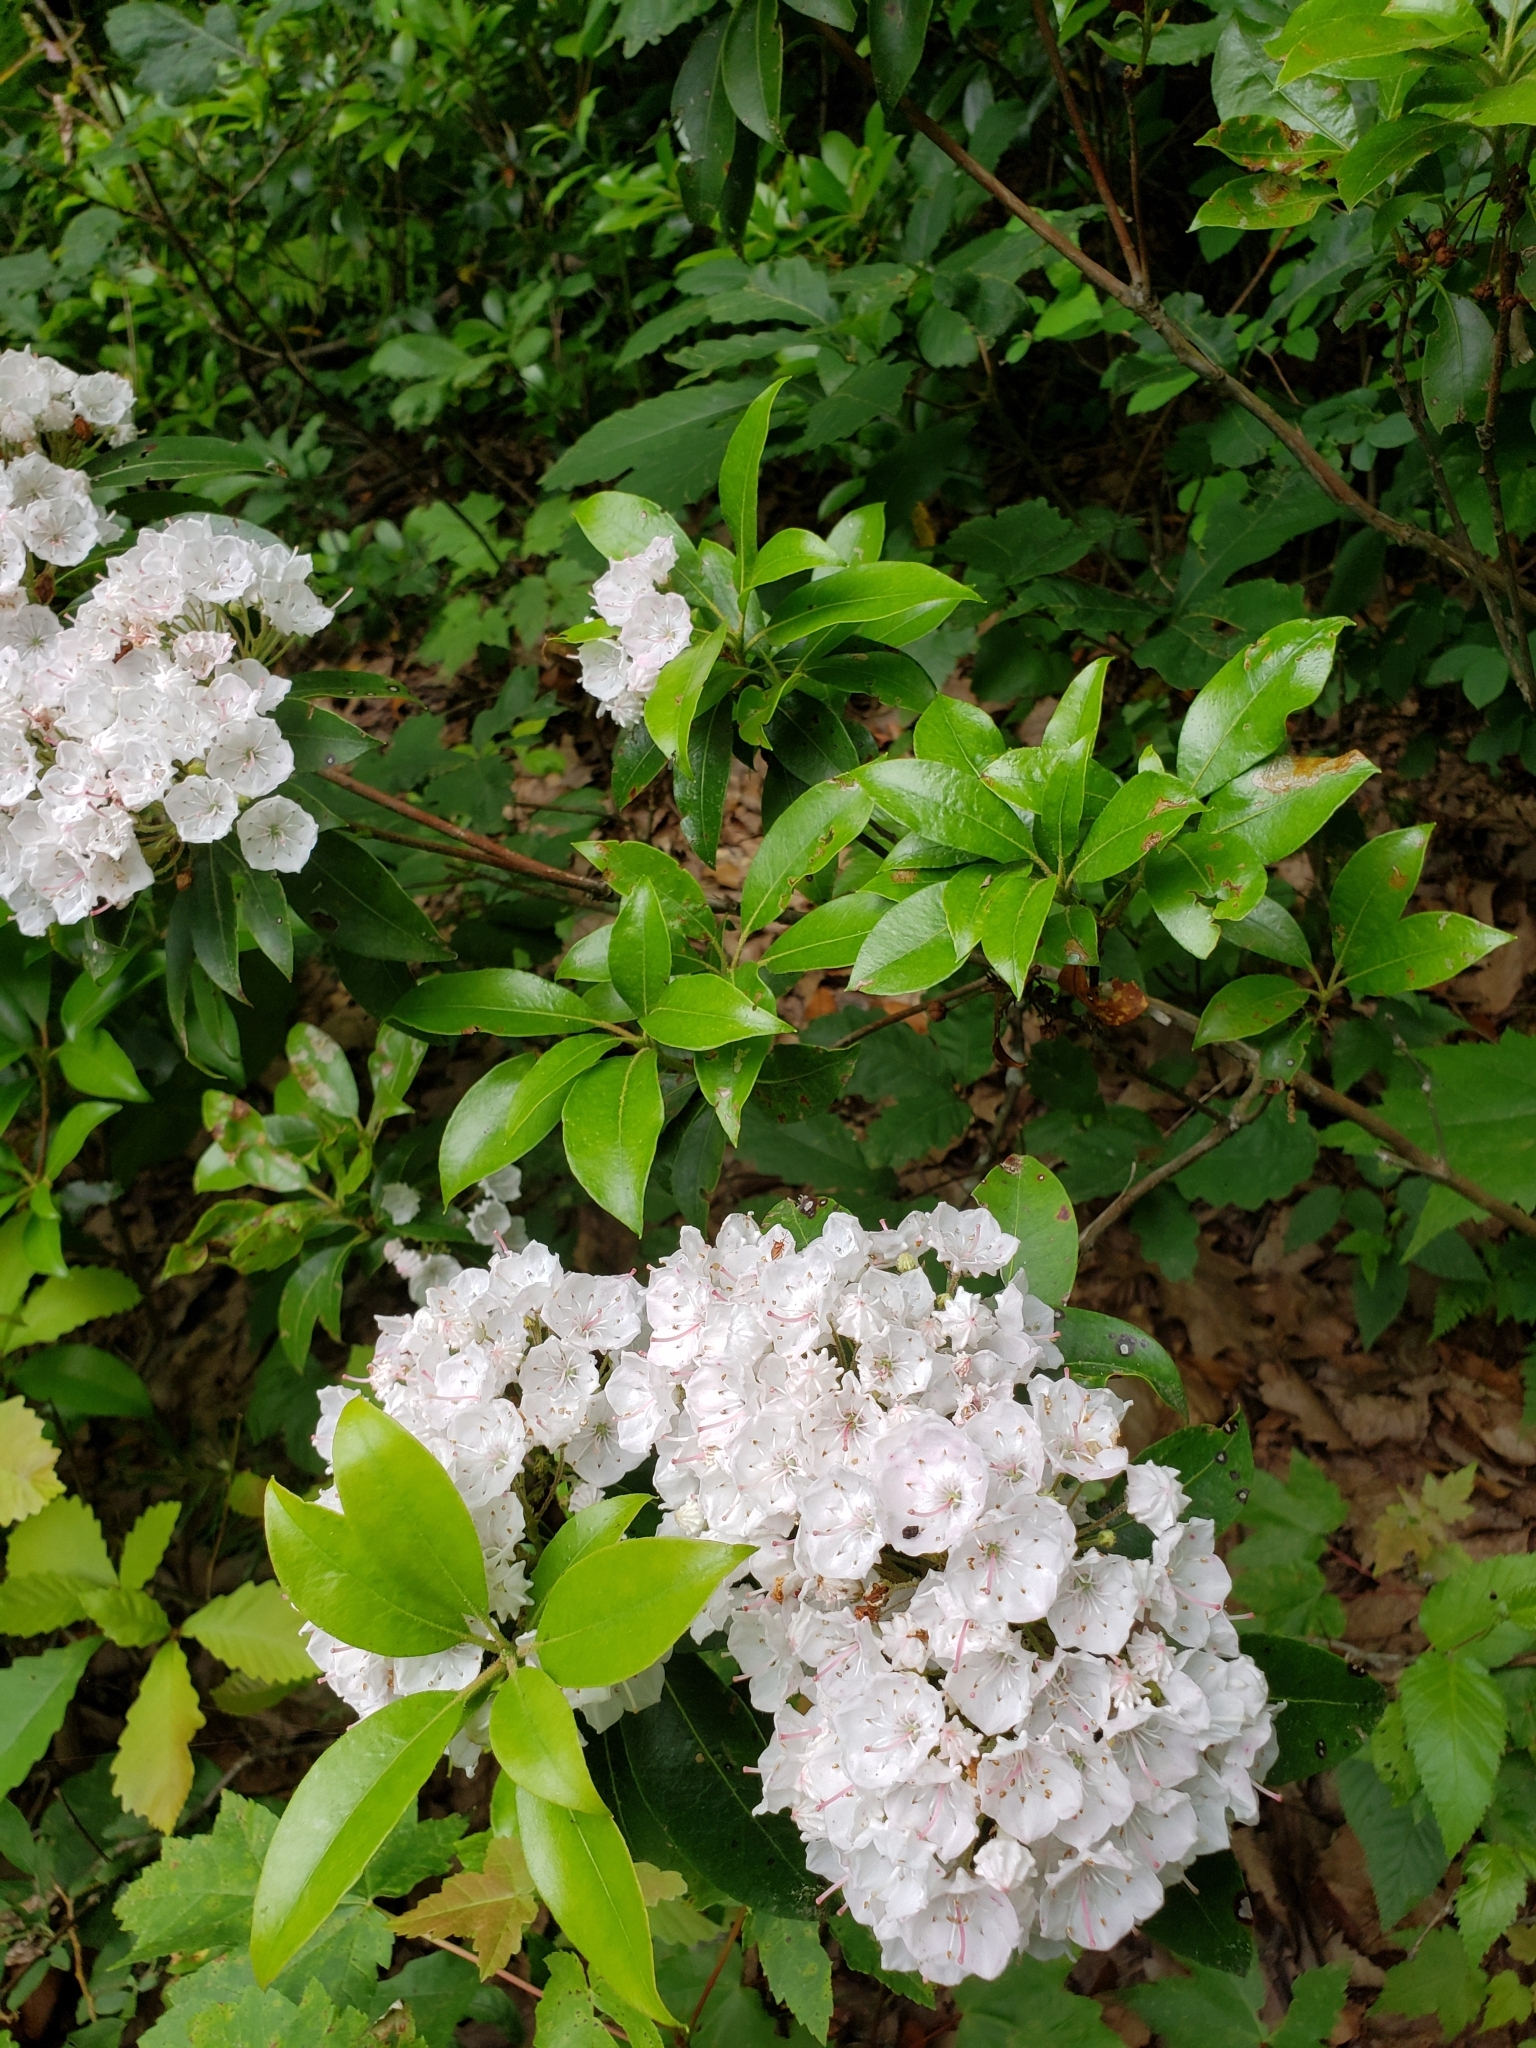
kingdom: Plantae
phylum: Tracheophyta
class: Magnoliopsida
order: Ericales
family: Ericaceae
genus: Kalmia
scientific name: Kalmia latifolia
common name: Mountain-laurel
